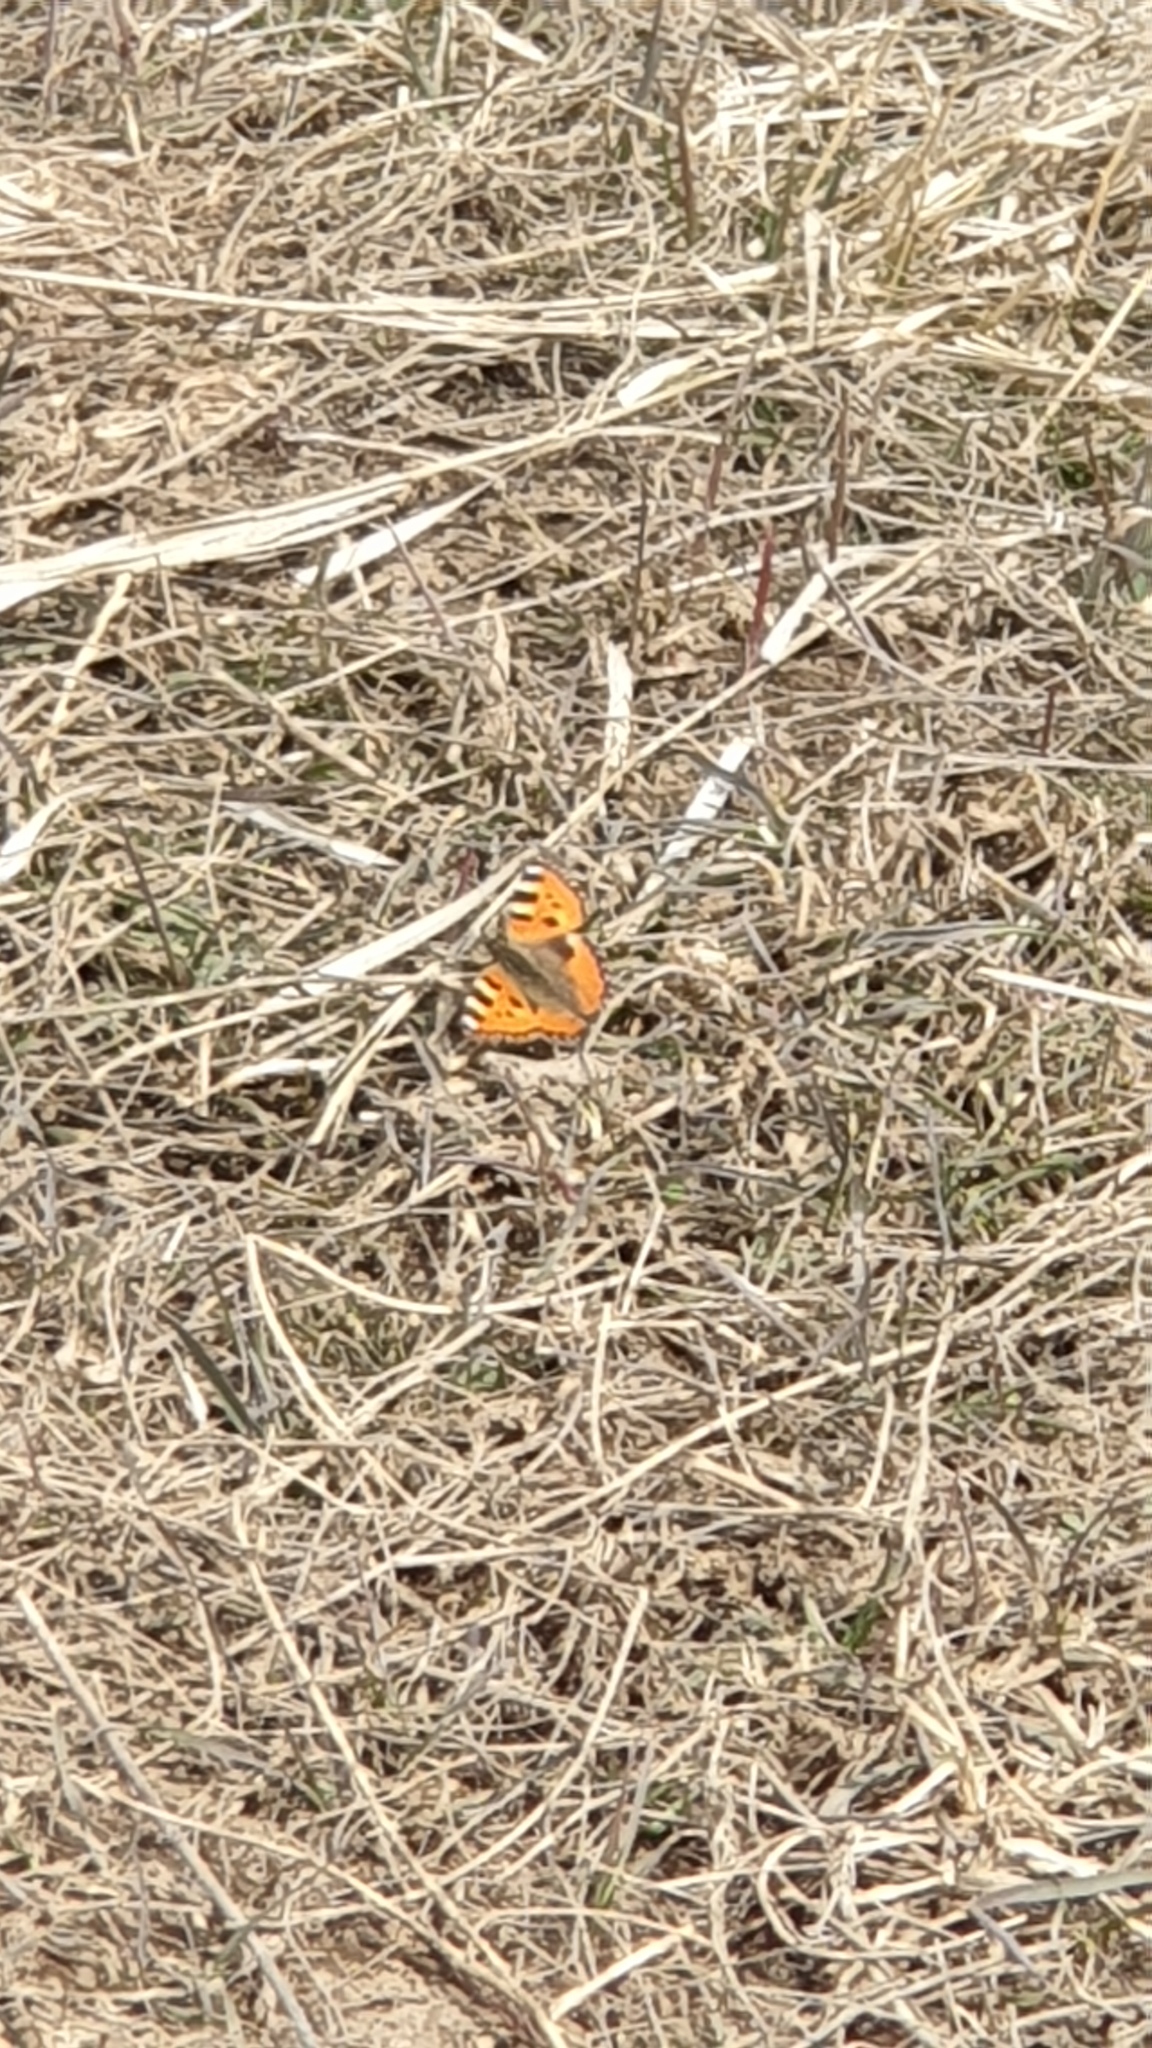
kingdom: Animalia
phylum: Arthropoda
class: Insecta
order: Lepidoptera
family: Nymphalidae
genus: Aglais
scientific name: Aglais urticae
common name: Small tortoiseshell
